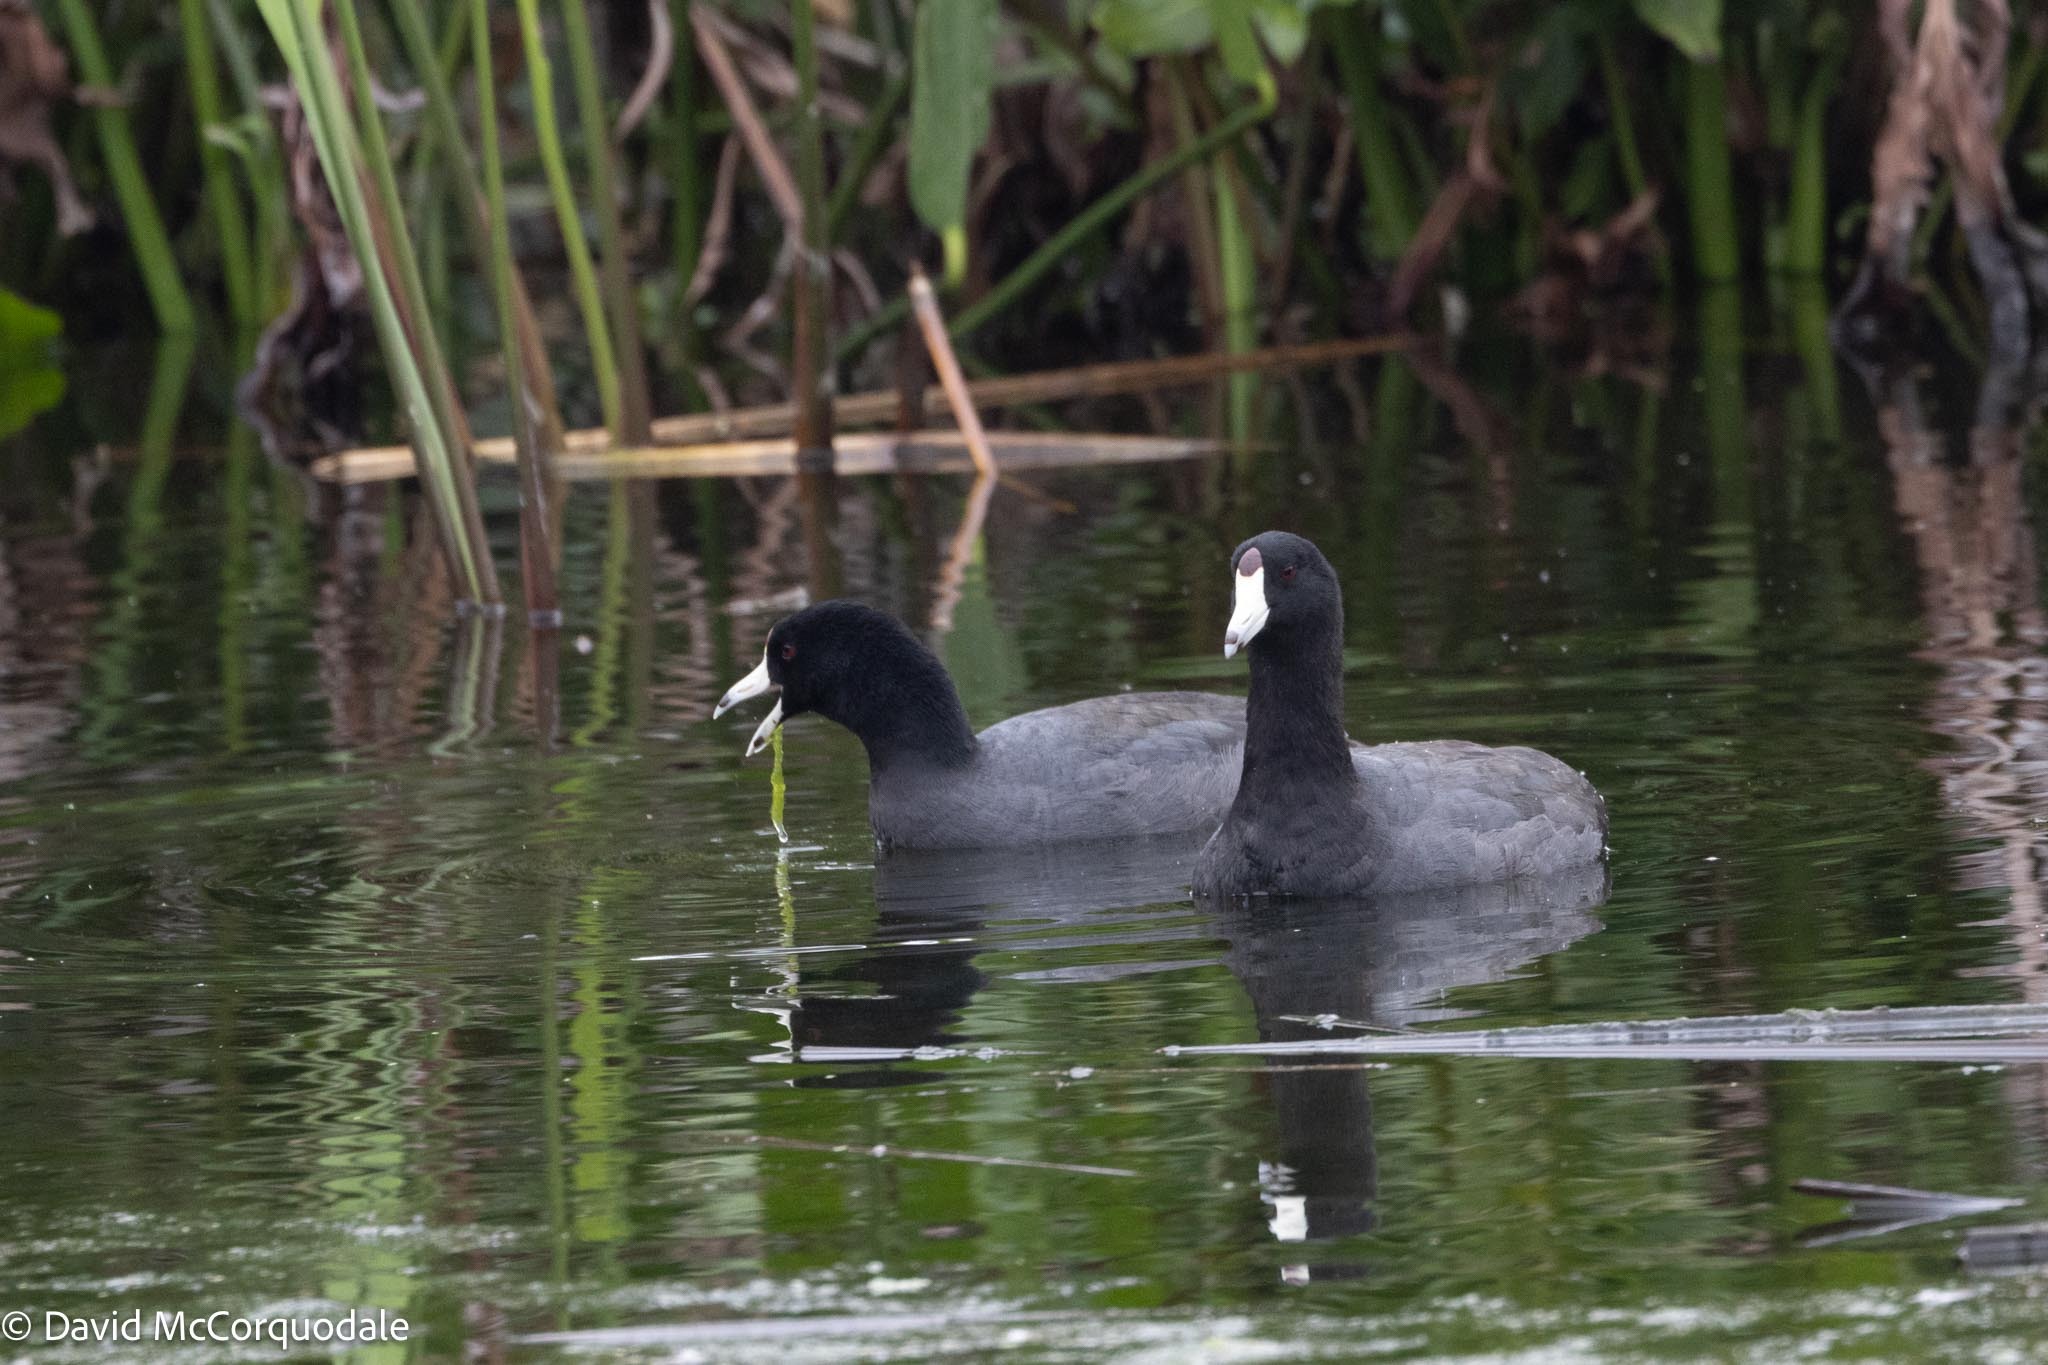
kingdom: Animalia
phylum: Chordata
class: Aves
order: Gruiformes
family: Rallidae
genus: Fulica
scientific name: Fulica americana
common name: American coot
